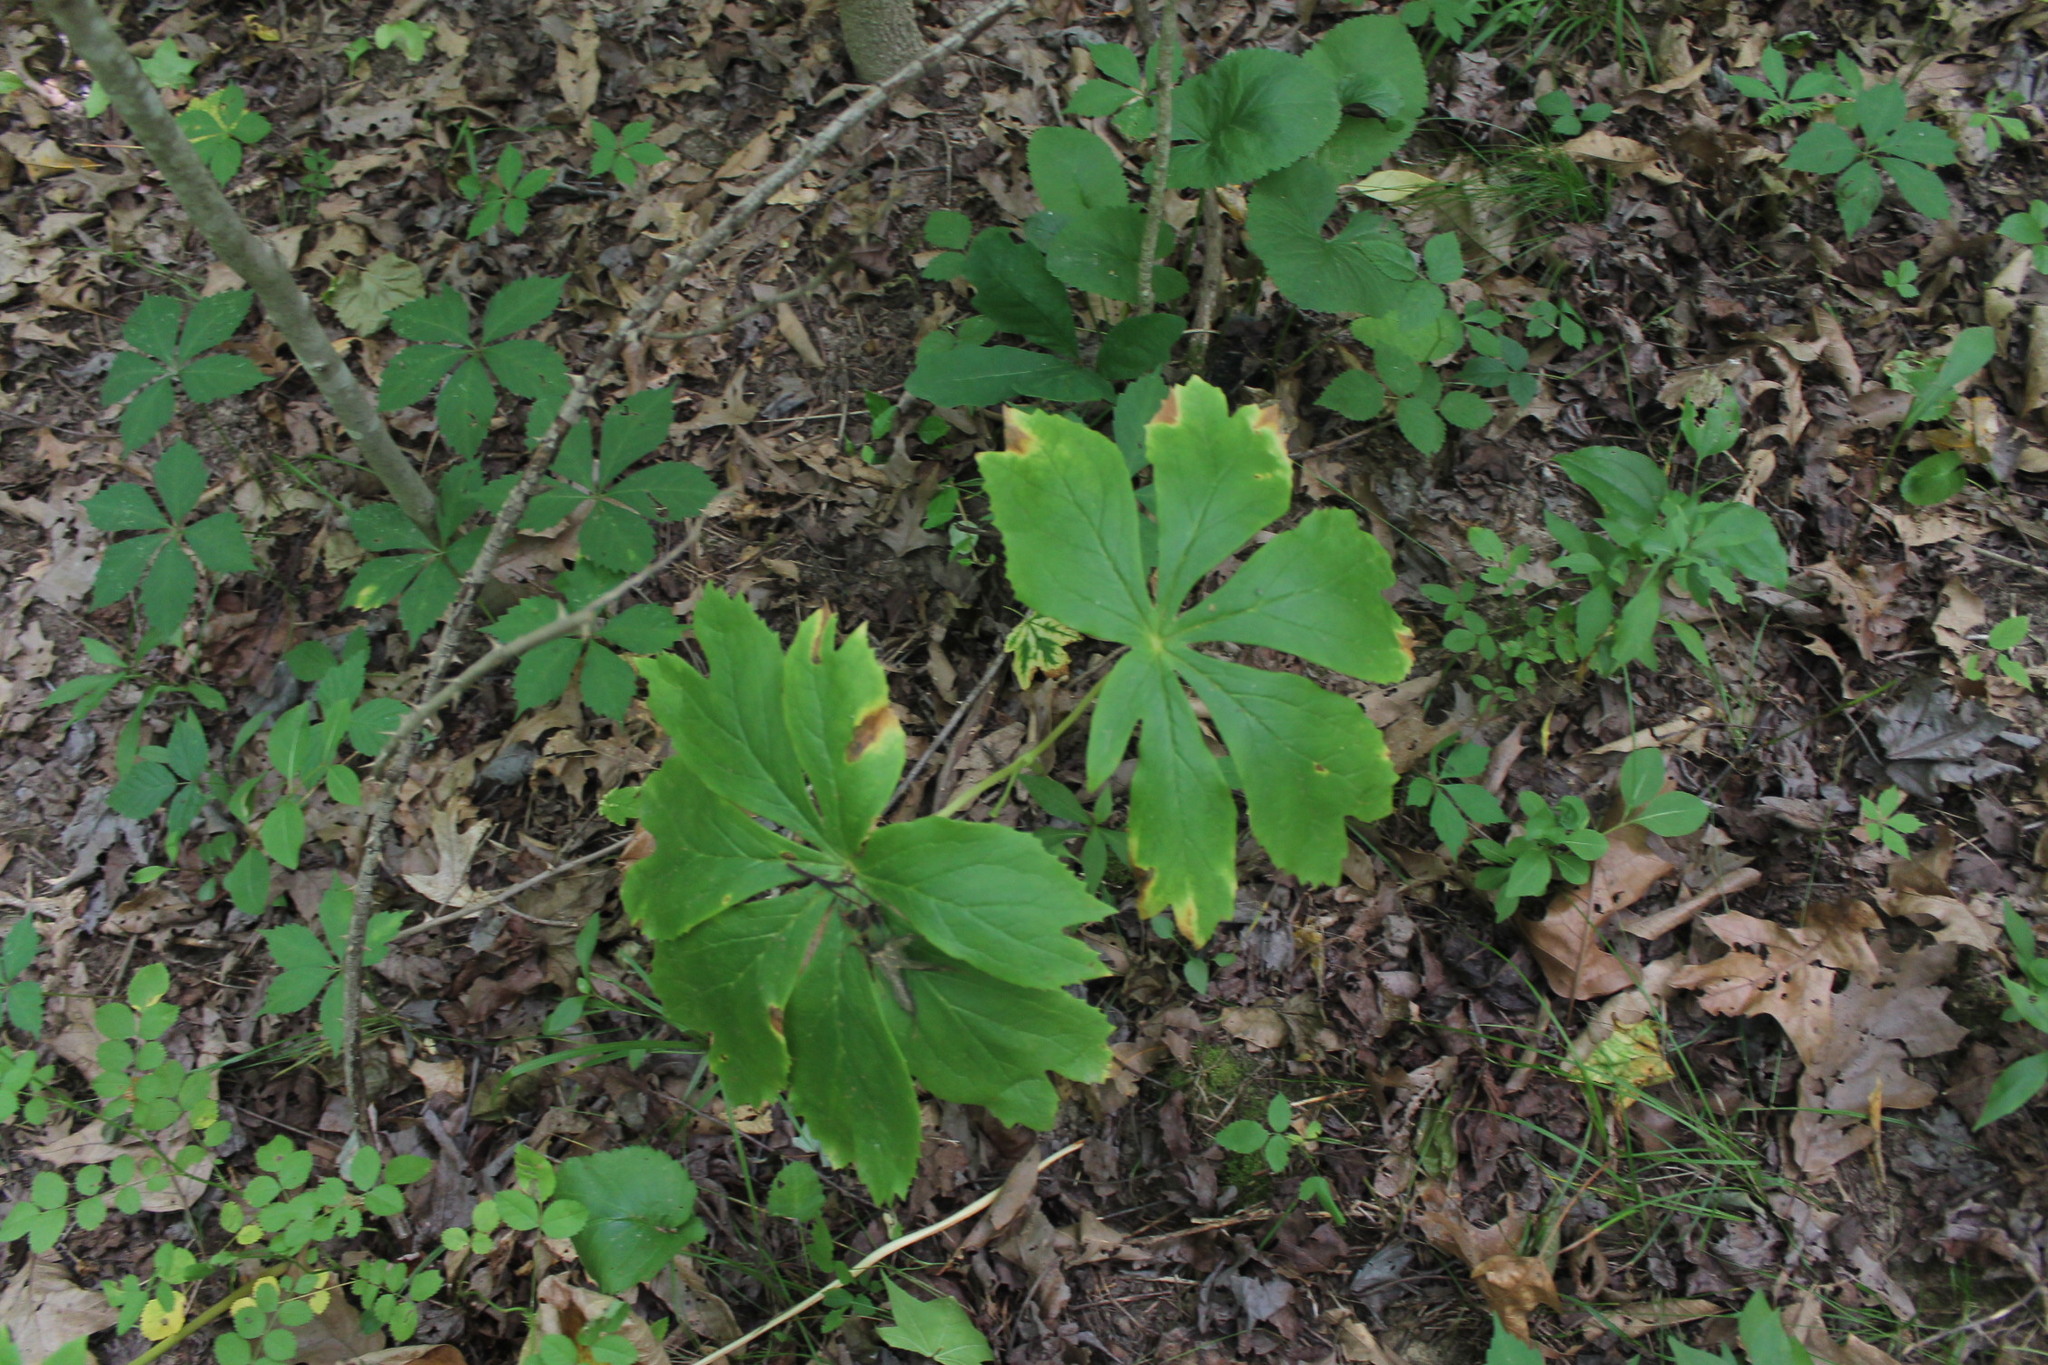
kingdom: Plantae
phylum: Tracheophyta
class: Magnoliopsida
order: Ranunculales
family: Berberidaceae
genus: Podophyllum
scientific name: Podophyllum peltatum
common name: Wild mandrake
